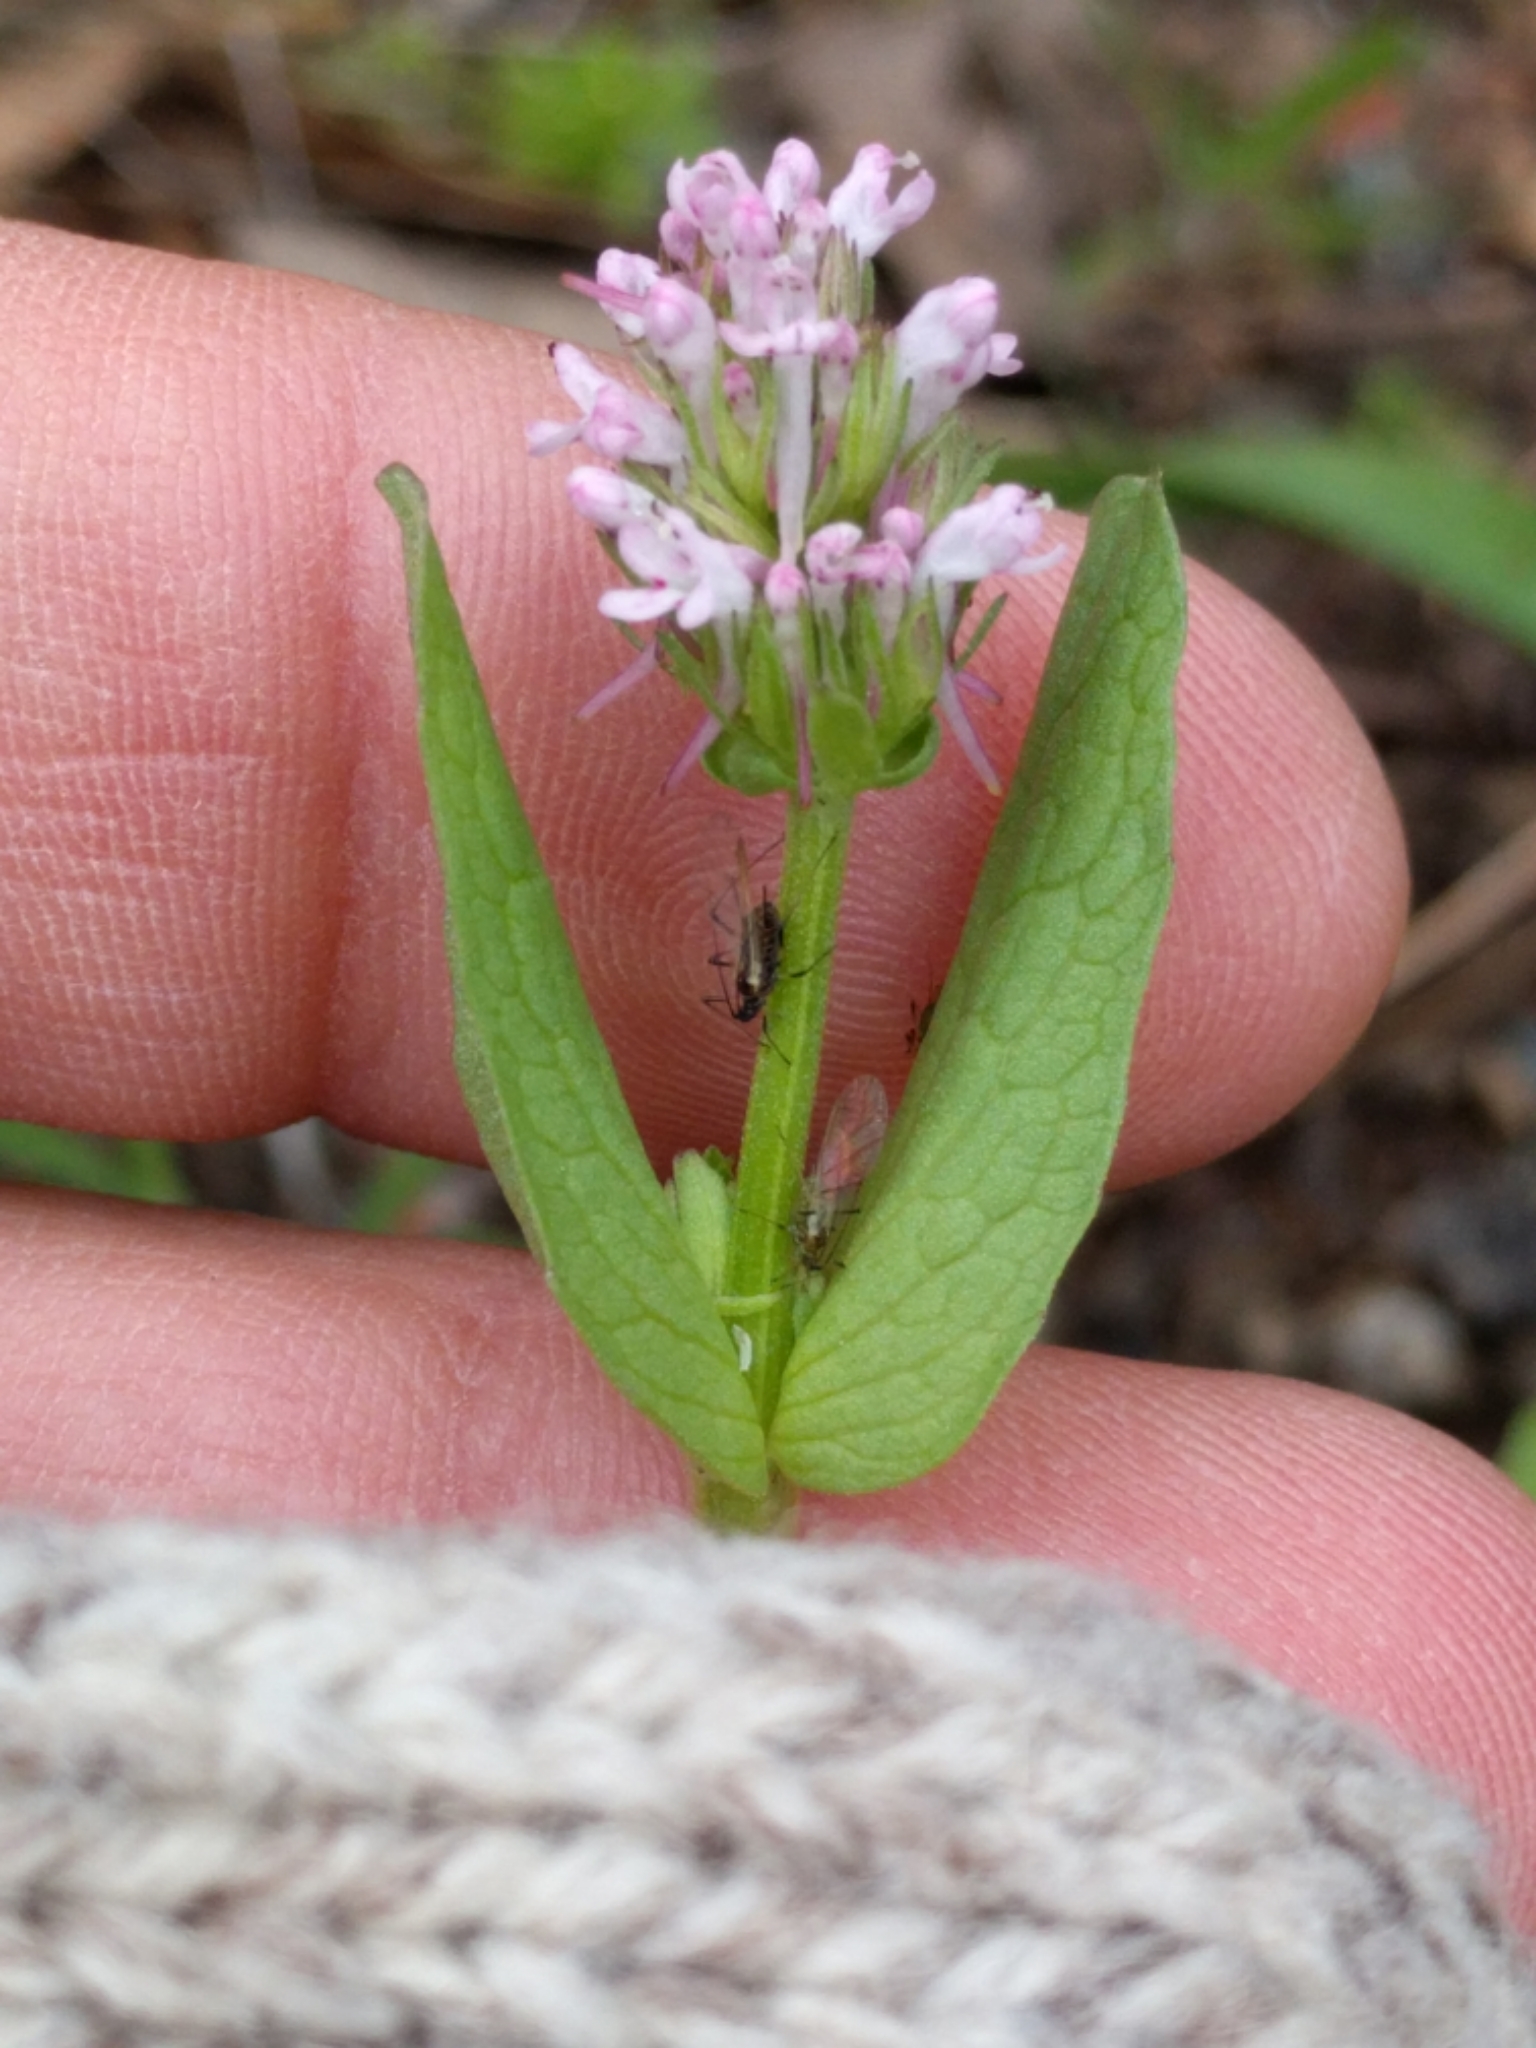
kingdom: Plantae
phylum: Tracheophyta
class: Magnoliopsida
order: Dipsacales
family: Caprifoliaceae
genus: Plectritis
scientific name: Plectritis ciliosa
